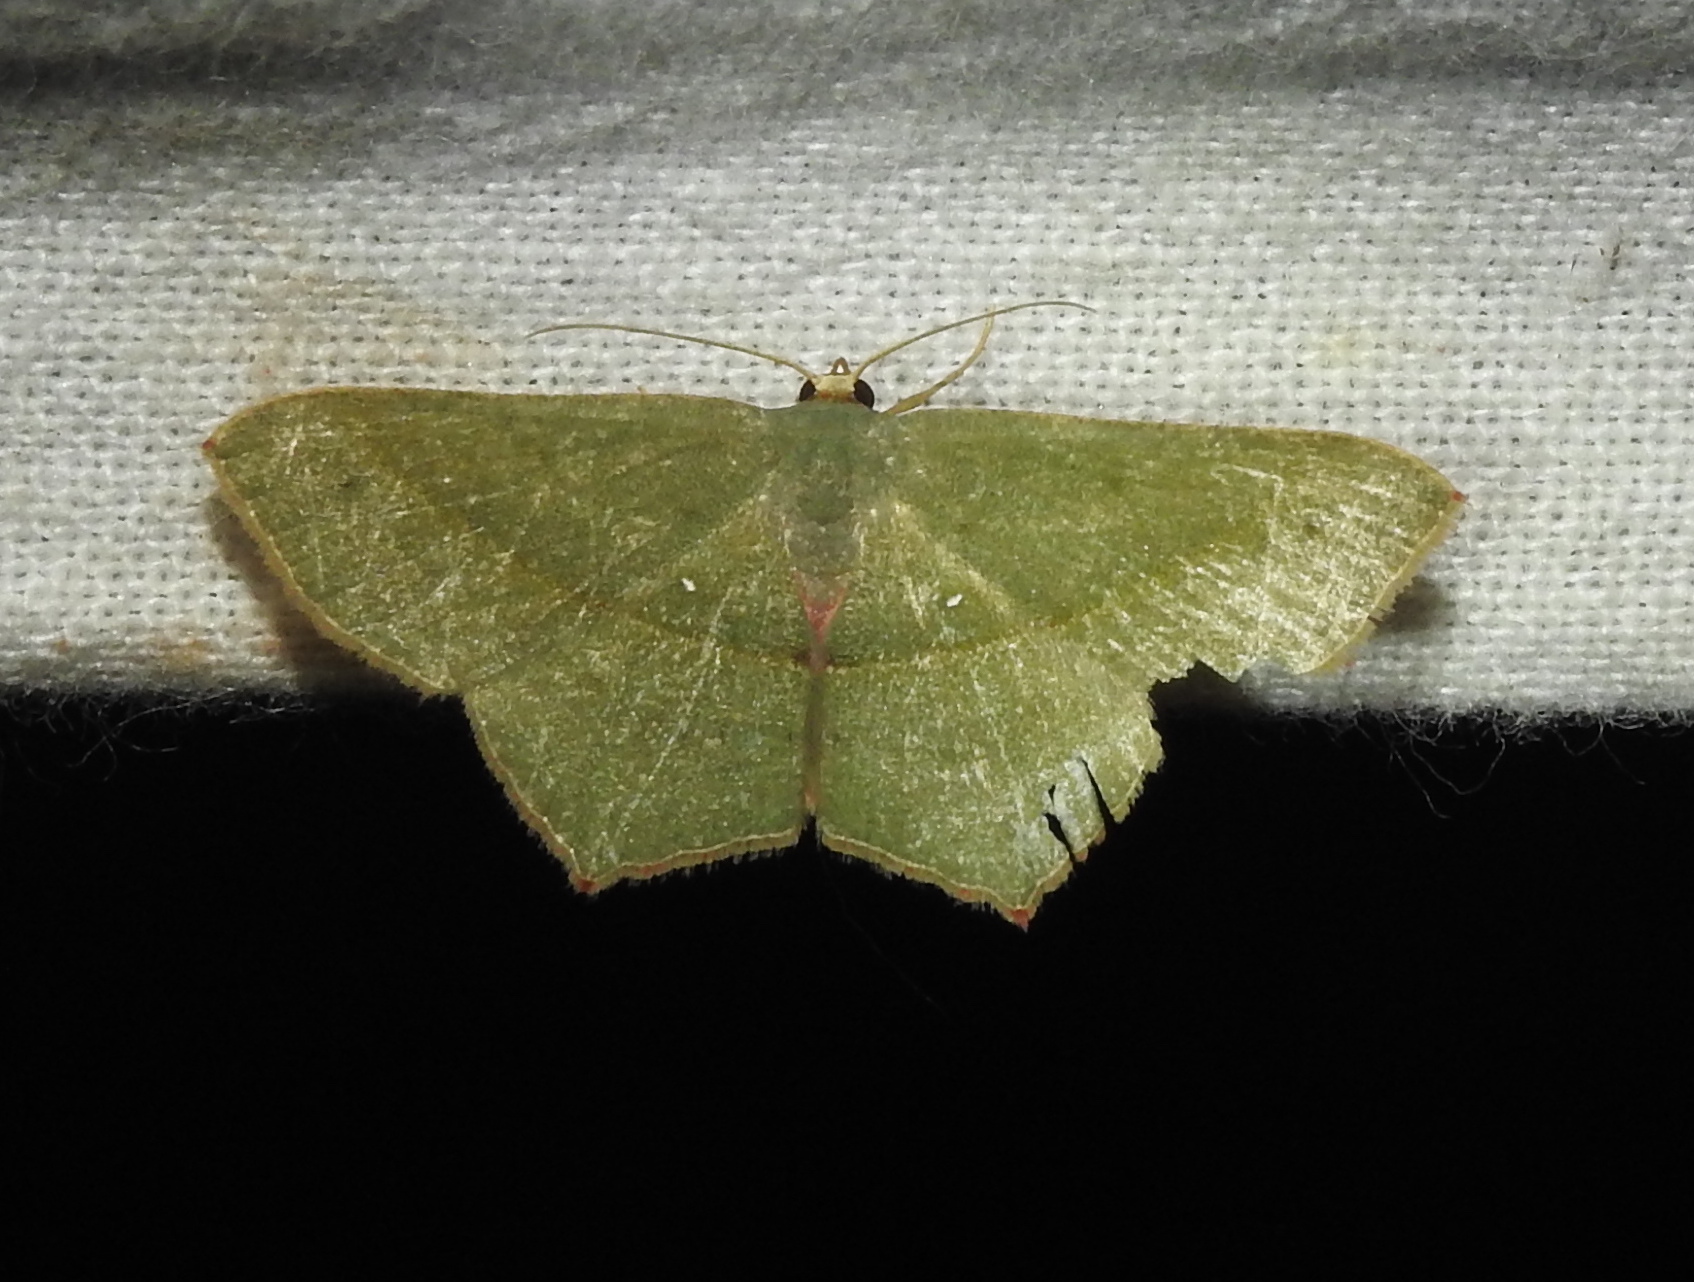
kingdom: Animalia
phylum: Arthropoda
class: Insecta
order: Lepidoptera
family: Geometridae
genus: Traminda
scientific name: Traminda mundissima
